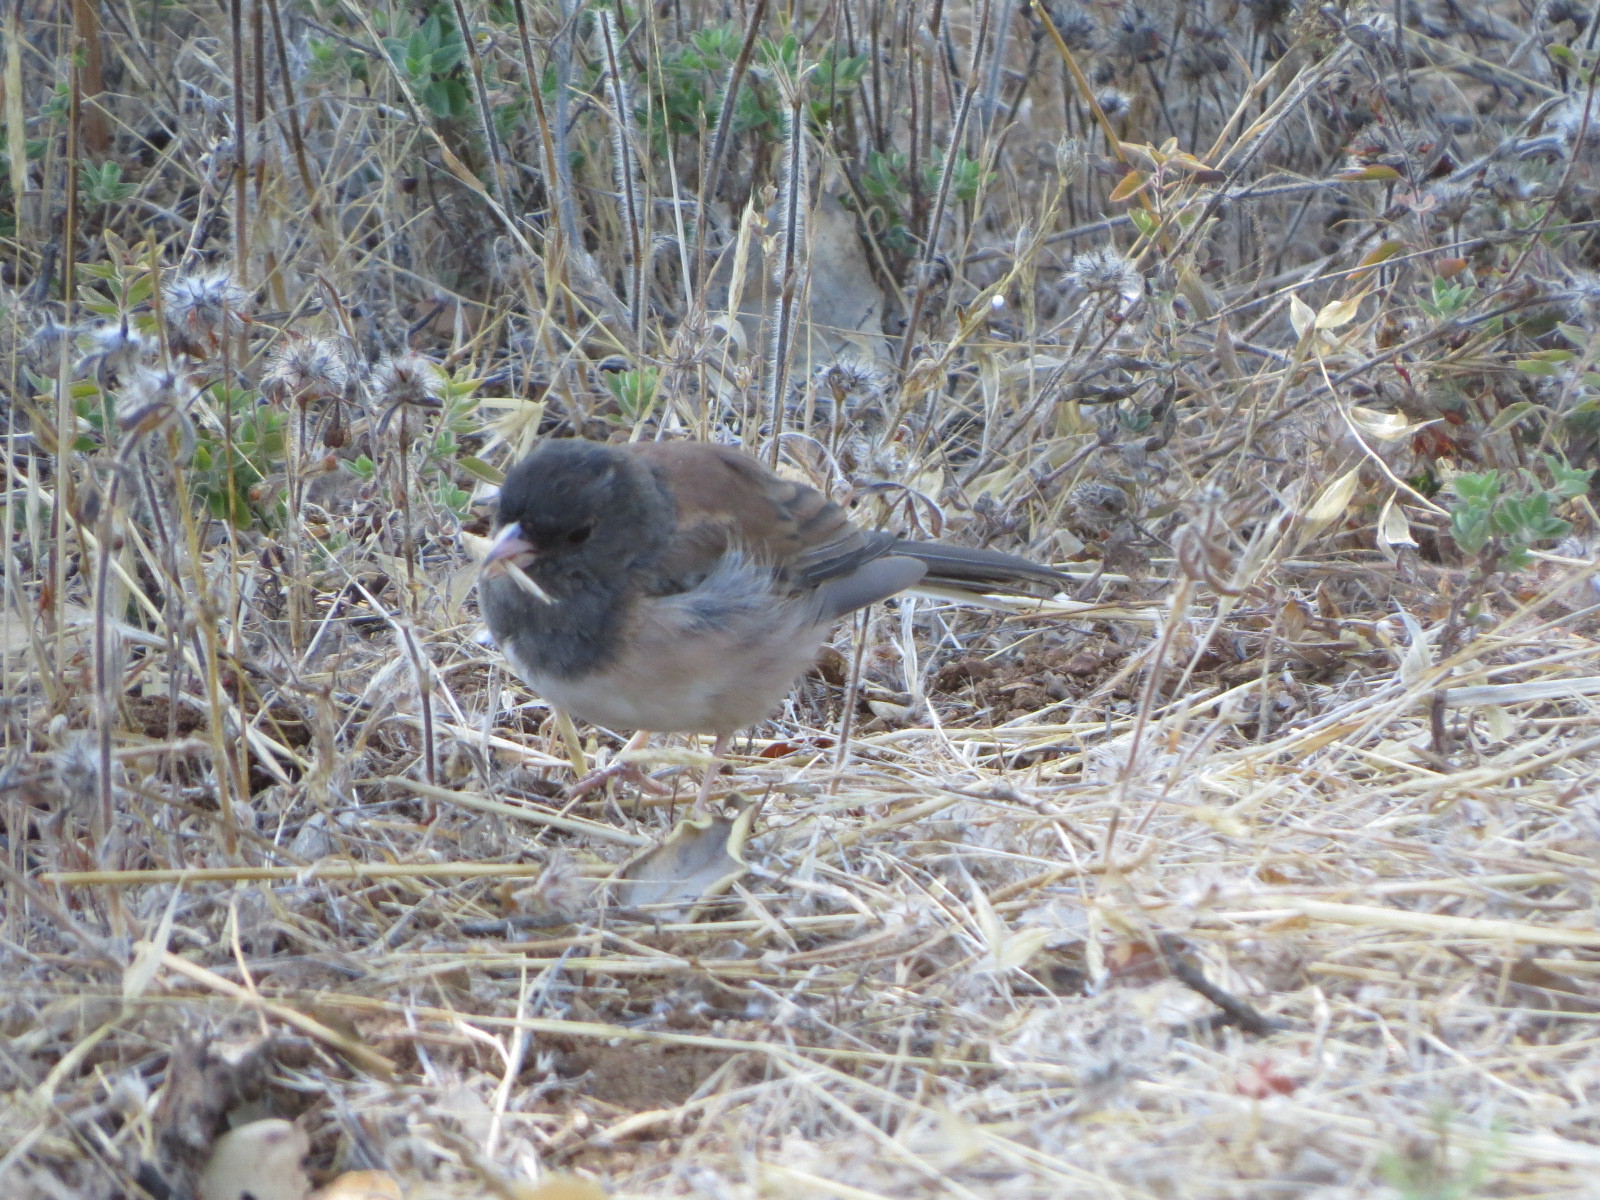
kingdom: Animalia
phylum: Chordata
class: Aves
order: Passeriformes
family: Passerellidae
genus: Junco
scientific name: Junco hyemalis
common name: Dark-eyed junco
